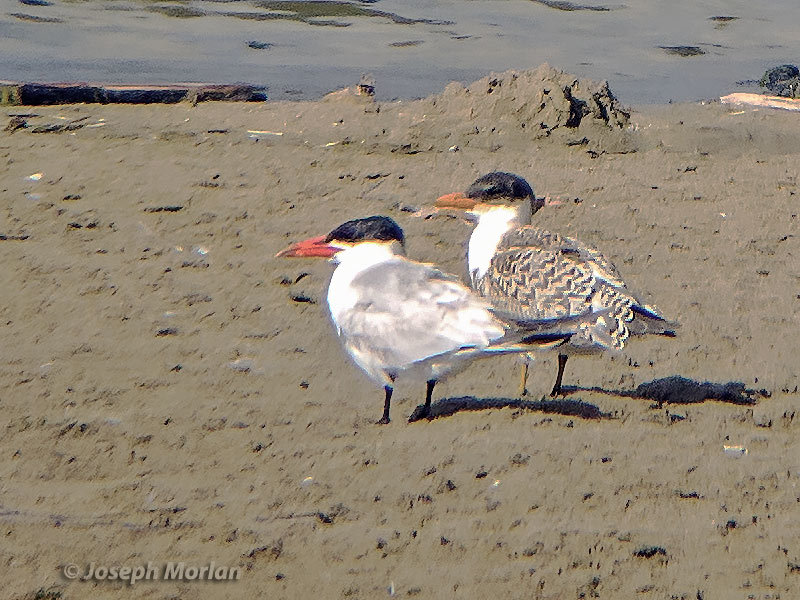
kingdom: Animalia
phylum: Chordata
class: Aves
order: Charadriiformes
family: Laridae
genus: Hydroprogne
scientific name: Hydroprogne caspia
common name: Caspian tern
